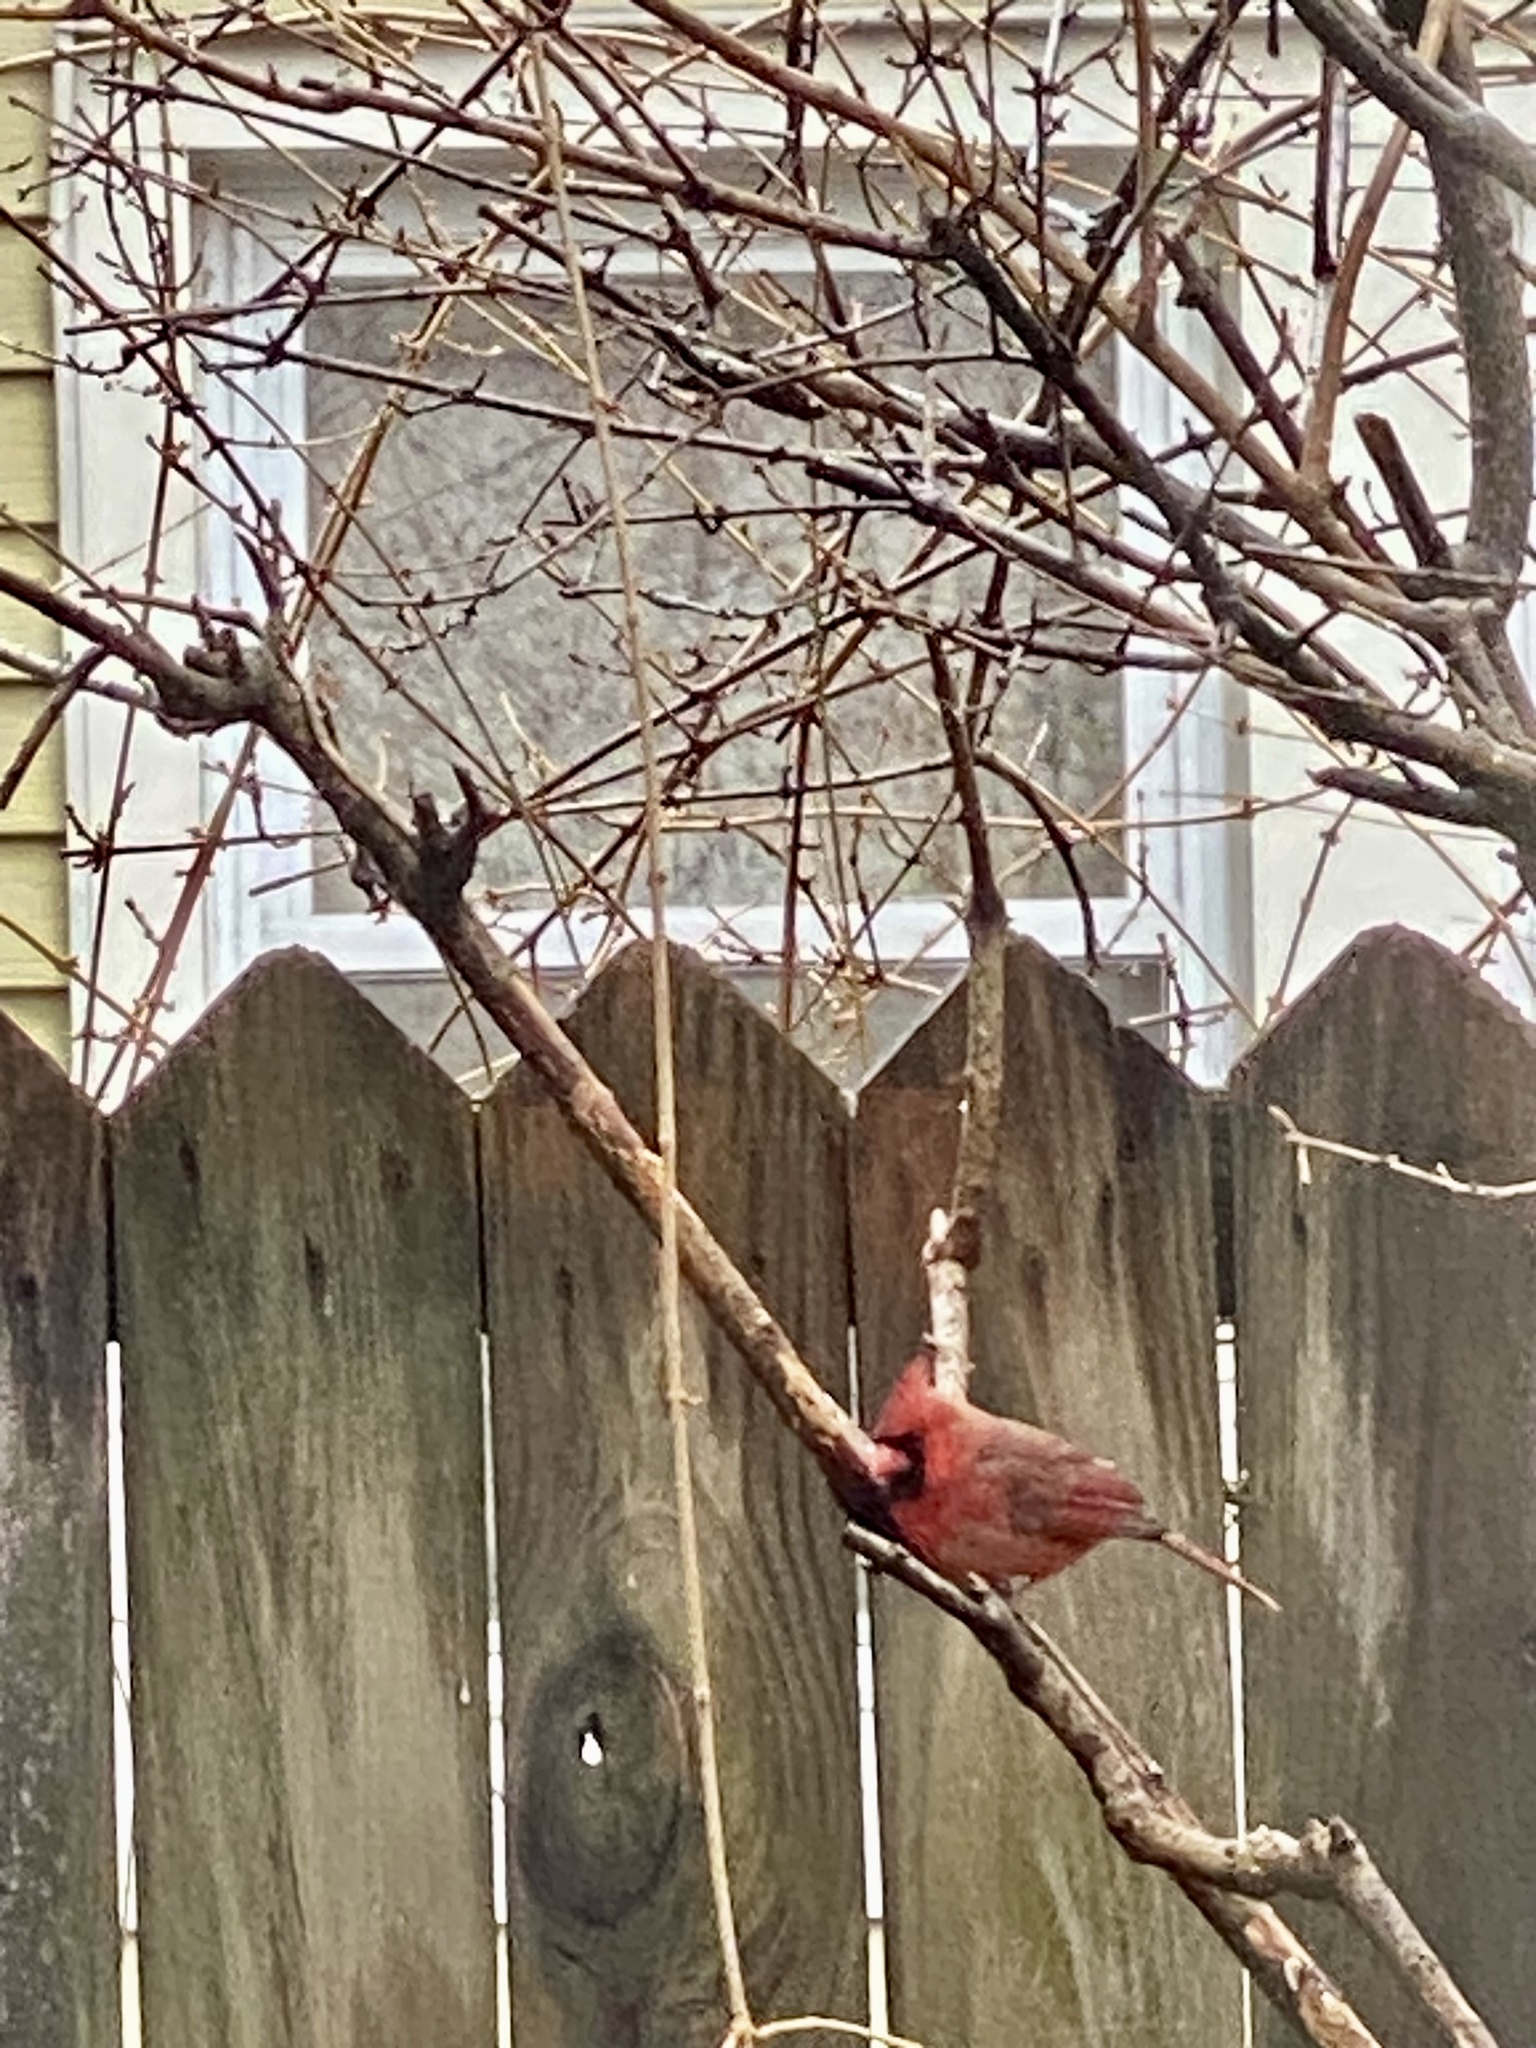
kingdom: Animalia
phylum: Chordata
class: Aves
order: Passeriformes
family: Cardinalidae
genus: Cardinalis
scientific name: Cardinalis cardinalis
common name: Northern cardinal
